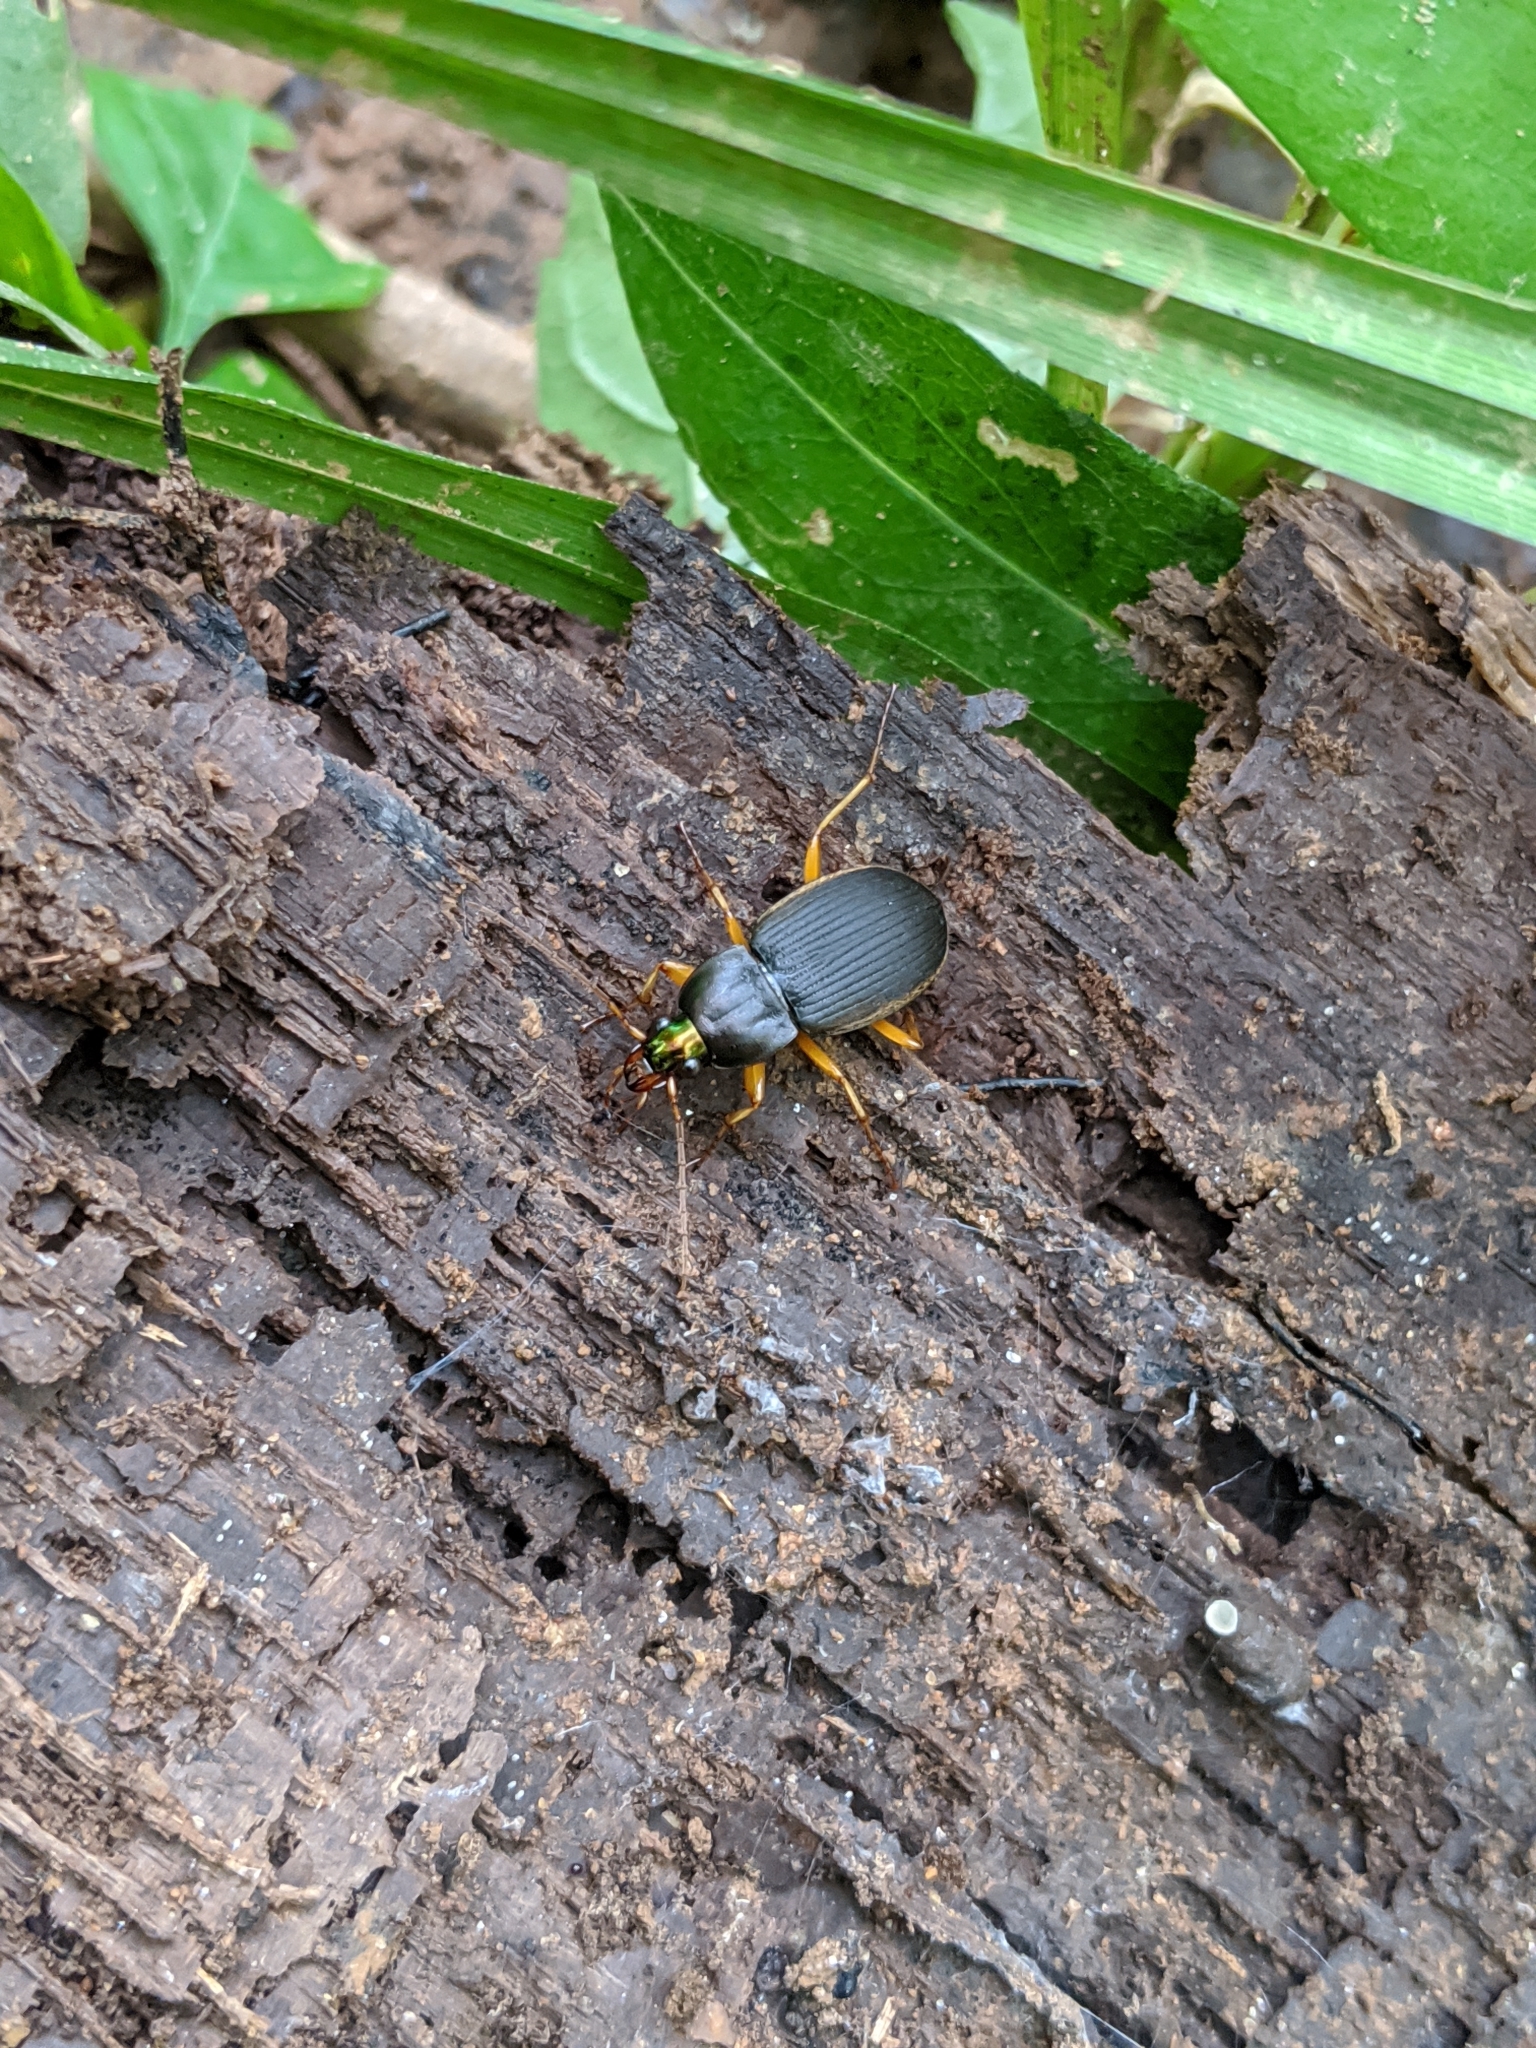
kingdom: Animalia
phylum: Arthropoda
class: Insecta
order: Coleoptera
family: Carabidae
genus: Chlaenius
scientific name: Chlaenius impunctifrons
